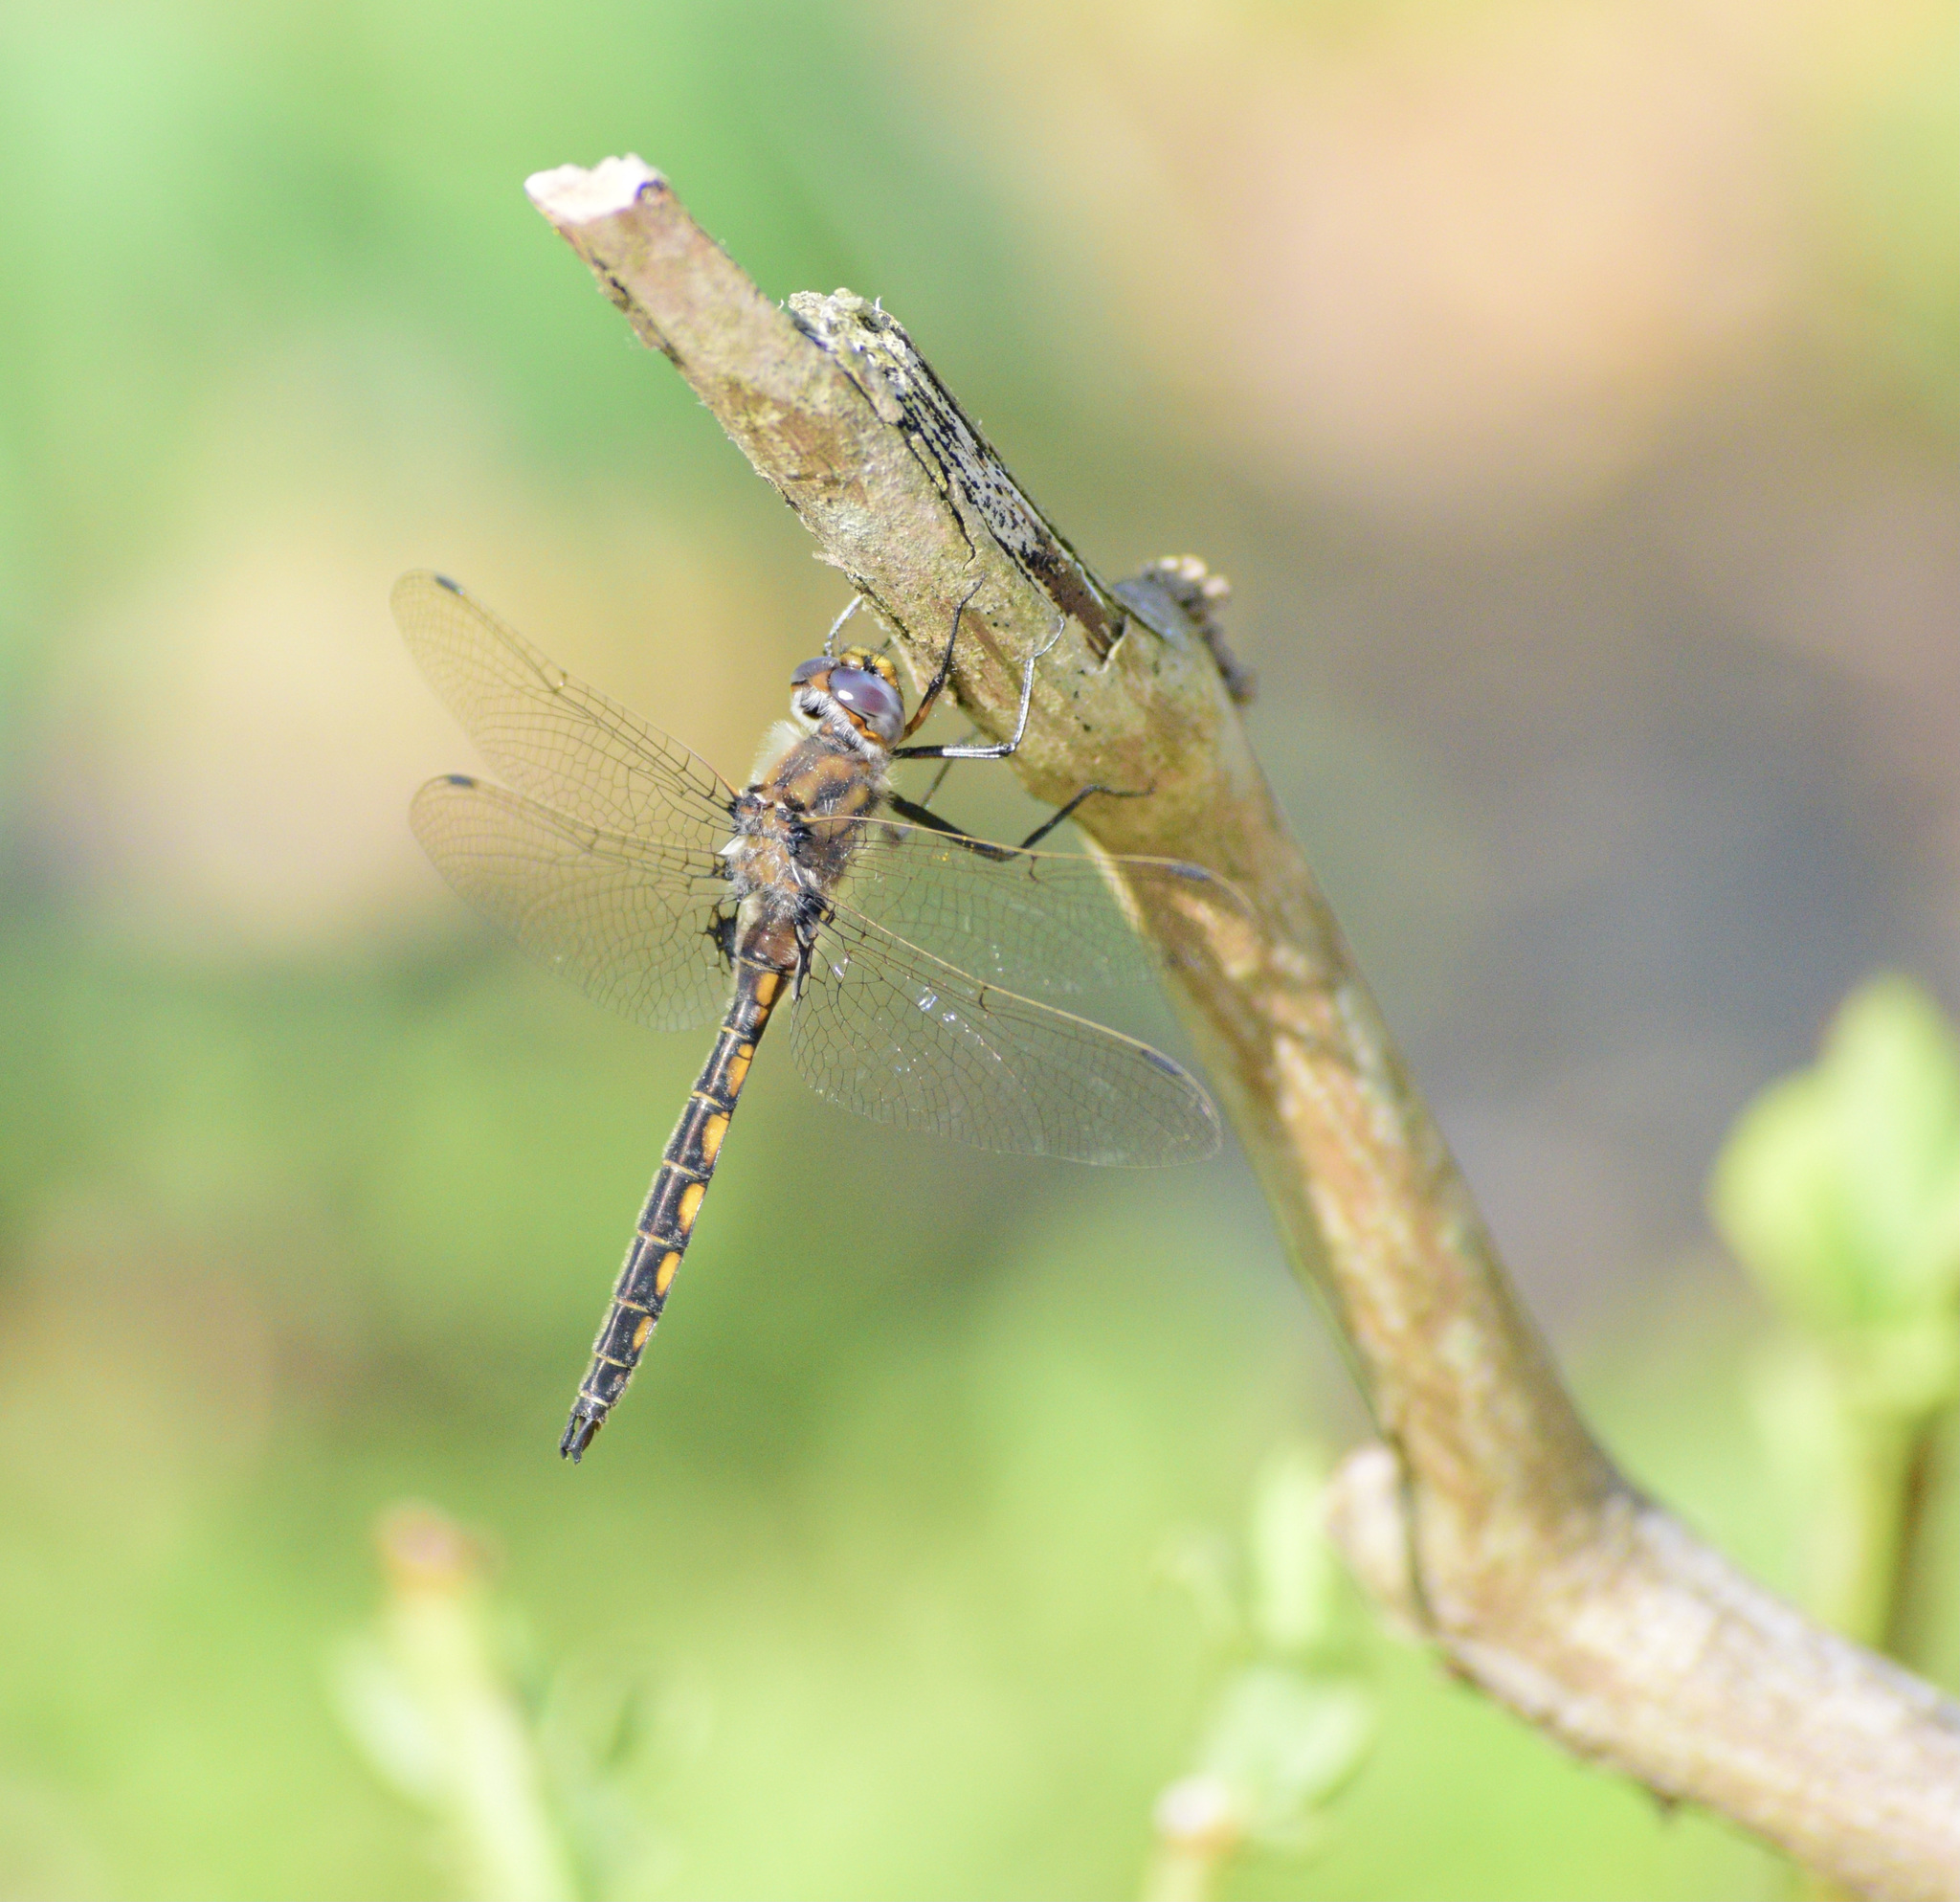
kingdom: Animalia
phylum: Arthropoda
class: Insecta
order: Odonata
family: Corduliidae
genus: Epitheca
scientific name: Epitheca canis
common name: Beaverpond baskettail
